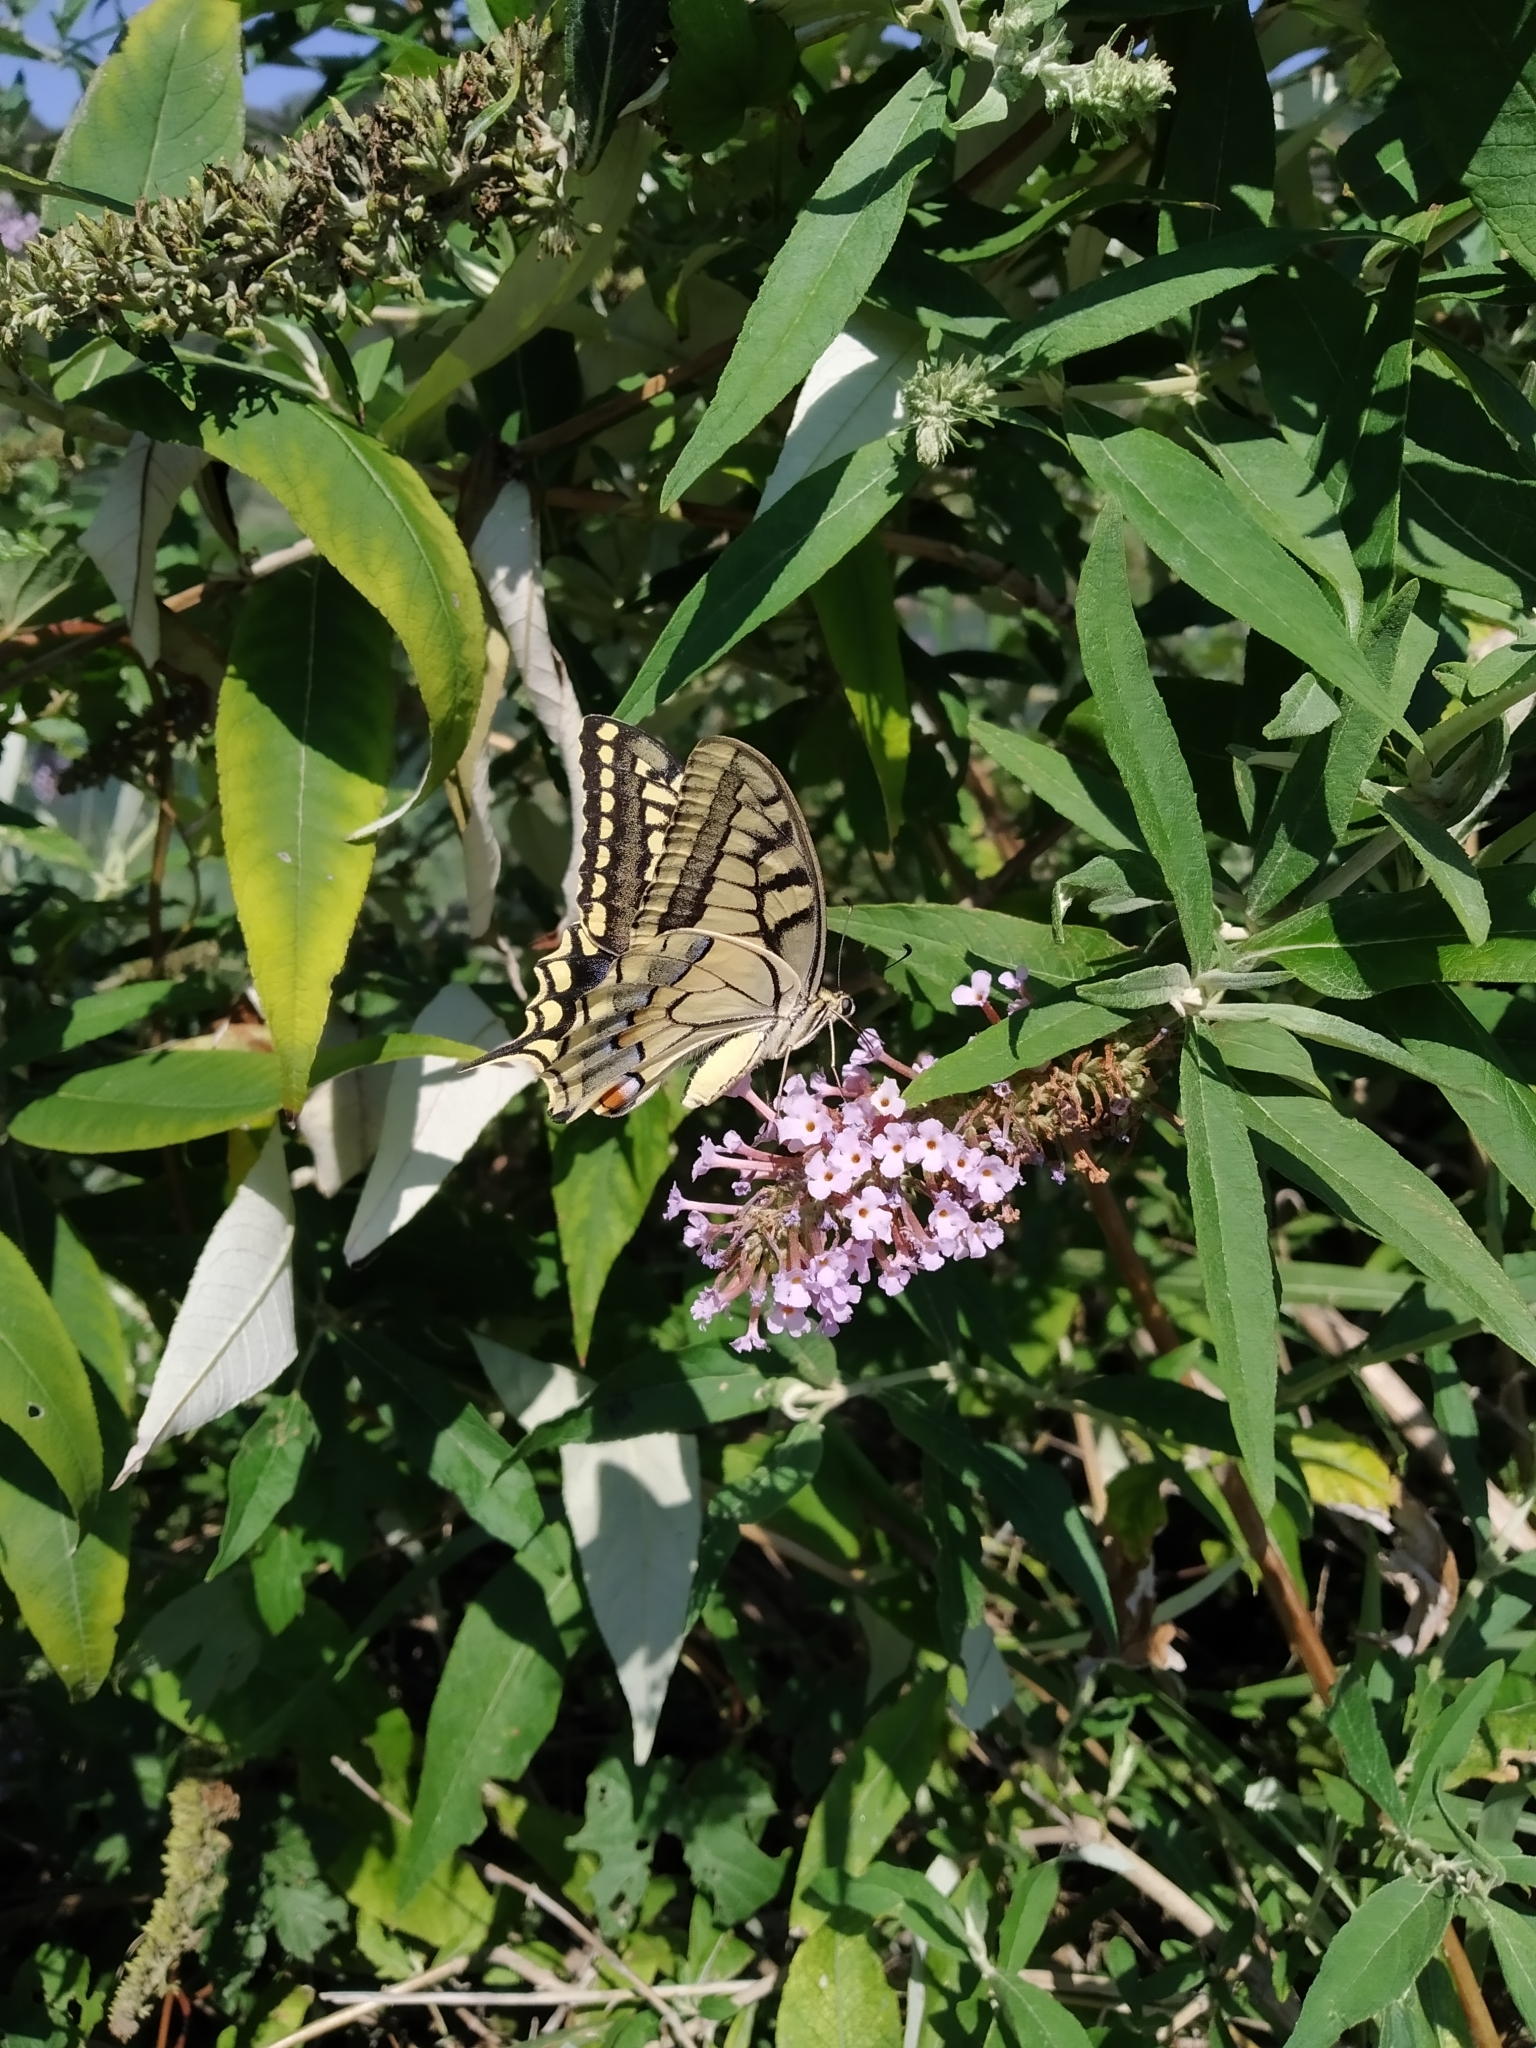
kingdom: Animalia
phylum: Arthropoda
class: Insecta
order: Lepidoptera
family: Papilionidae
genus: Papilio
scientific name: Papilio machaon
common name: Swallowtail
